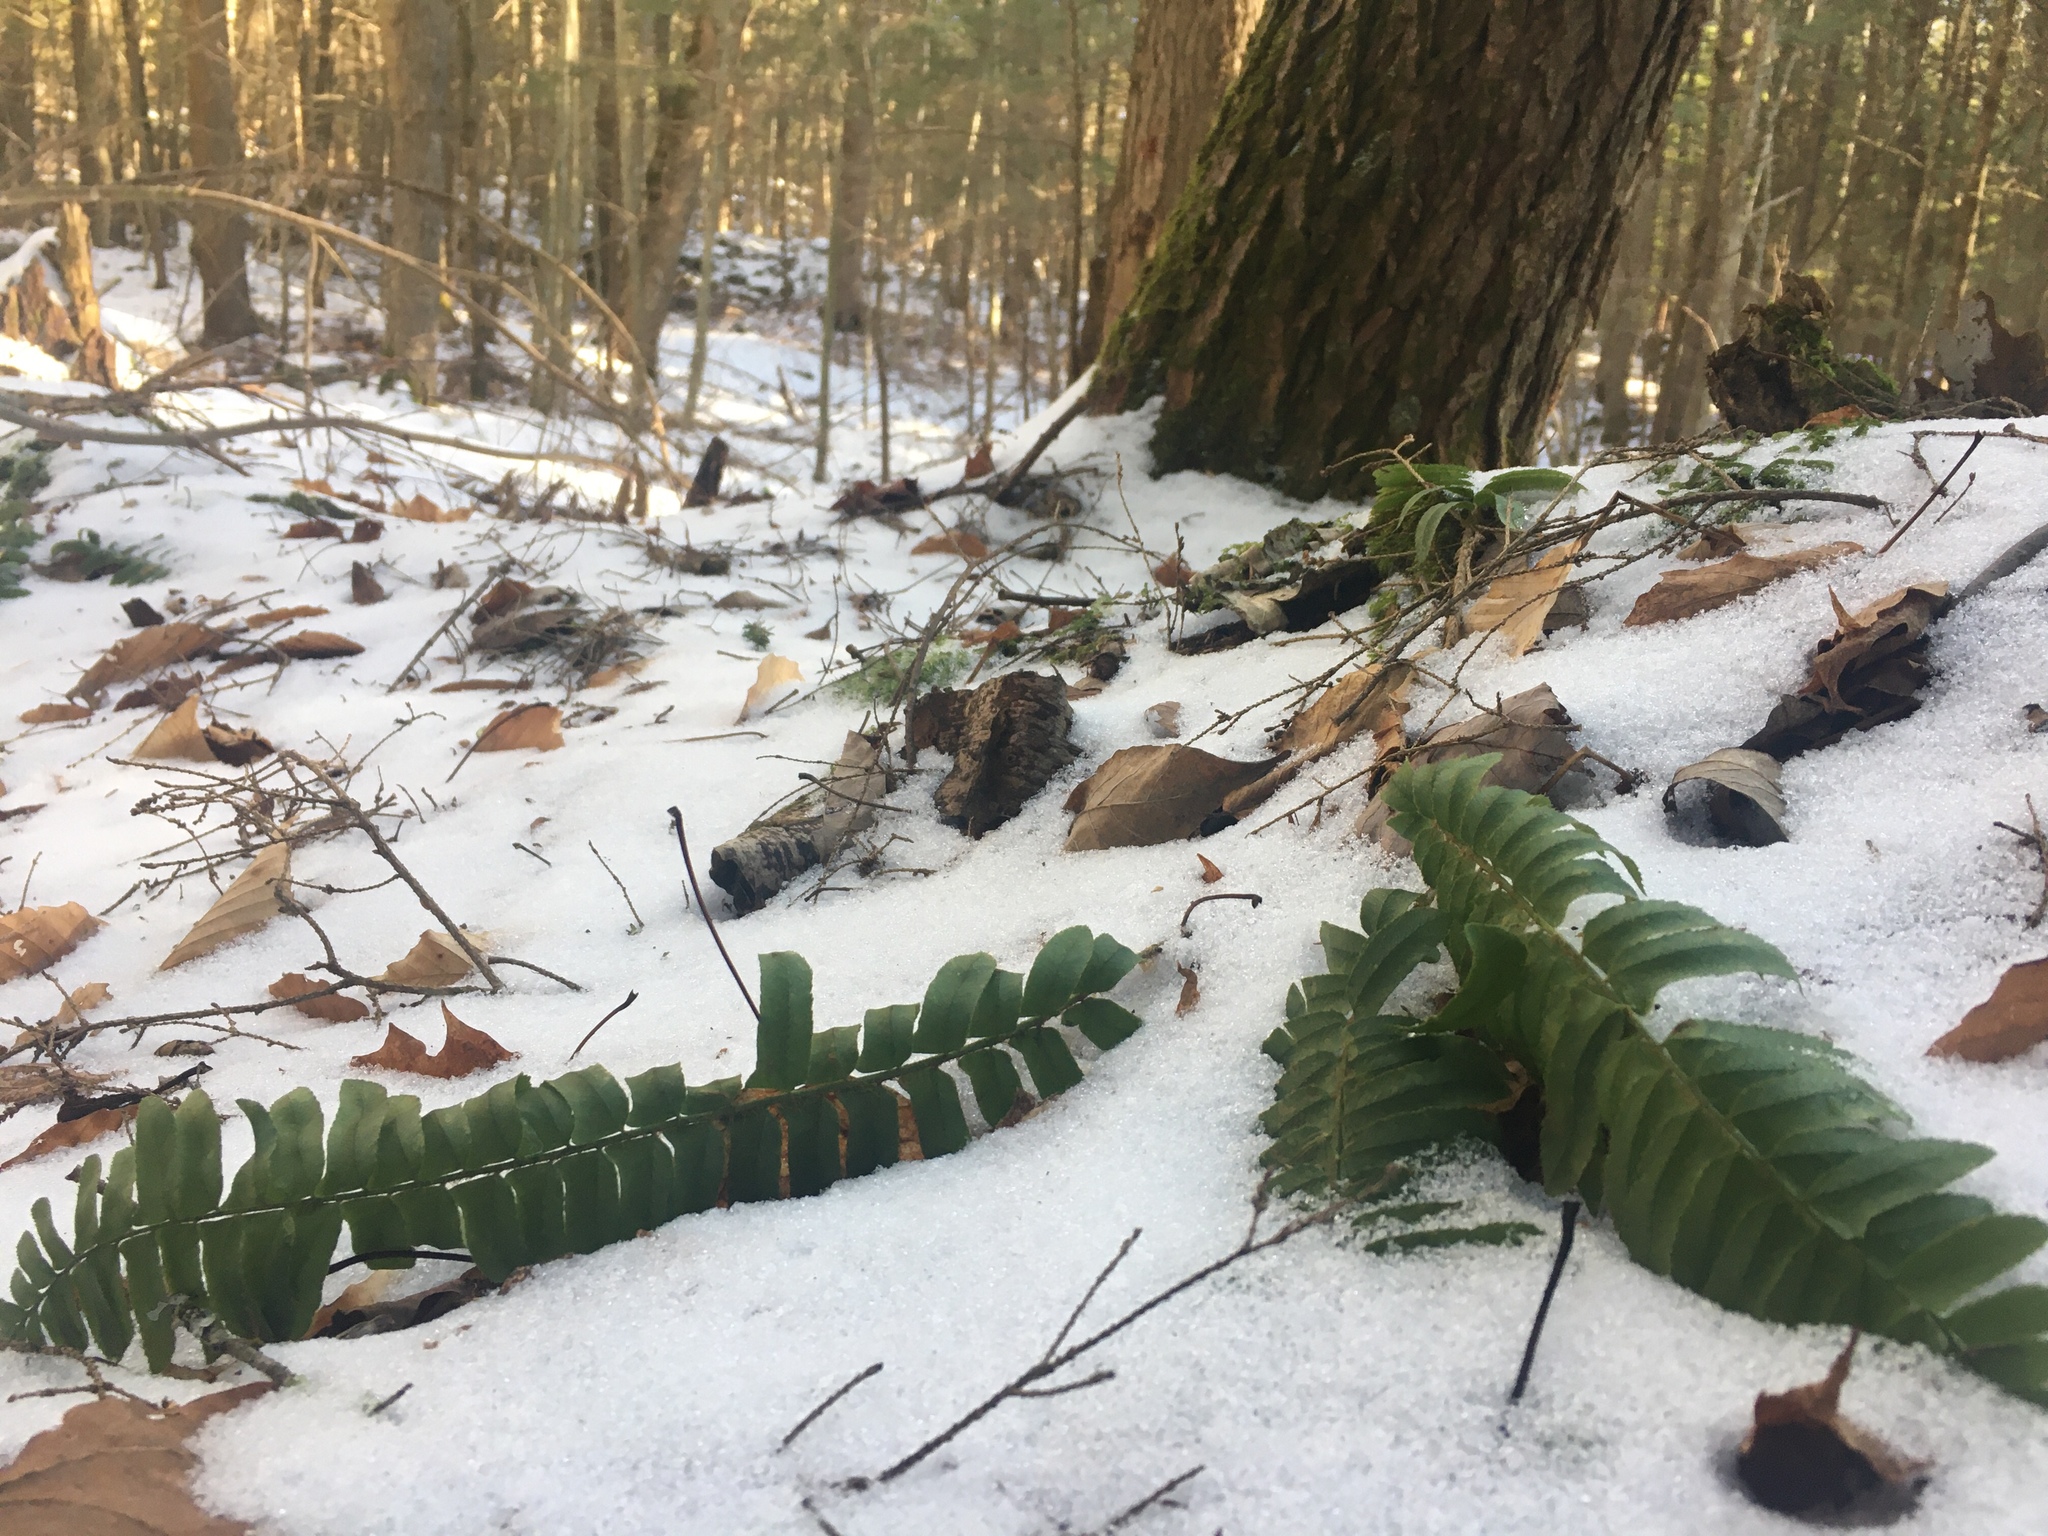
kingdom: Plantae
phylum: Tracheophyta
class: Polypodiopsida
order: Polypodiales
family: Dryopteridaceae
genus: Polystichum
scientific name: Polystichum acrostichoides
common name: Christmas fern
